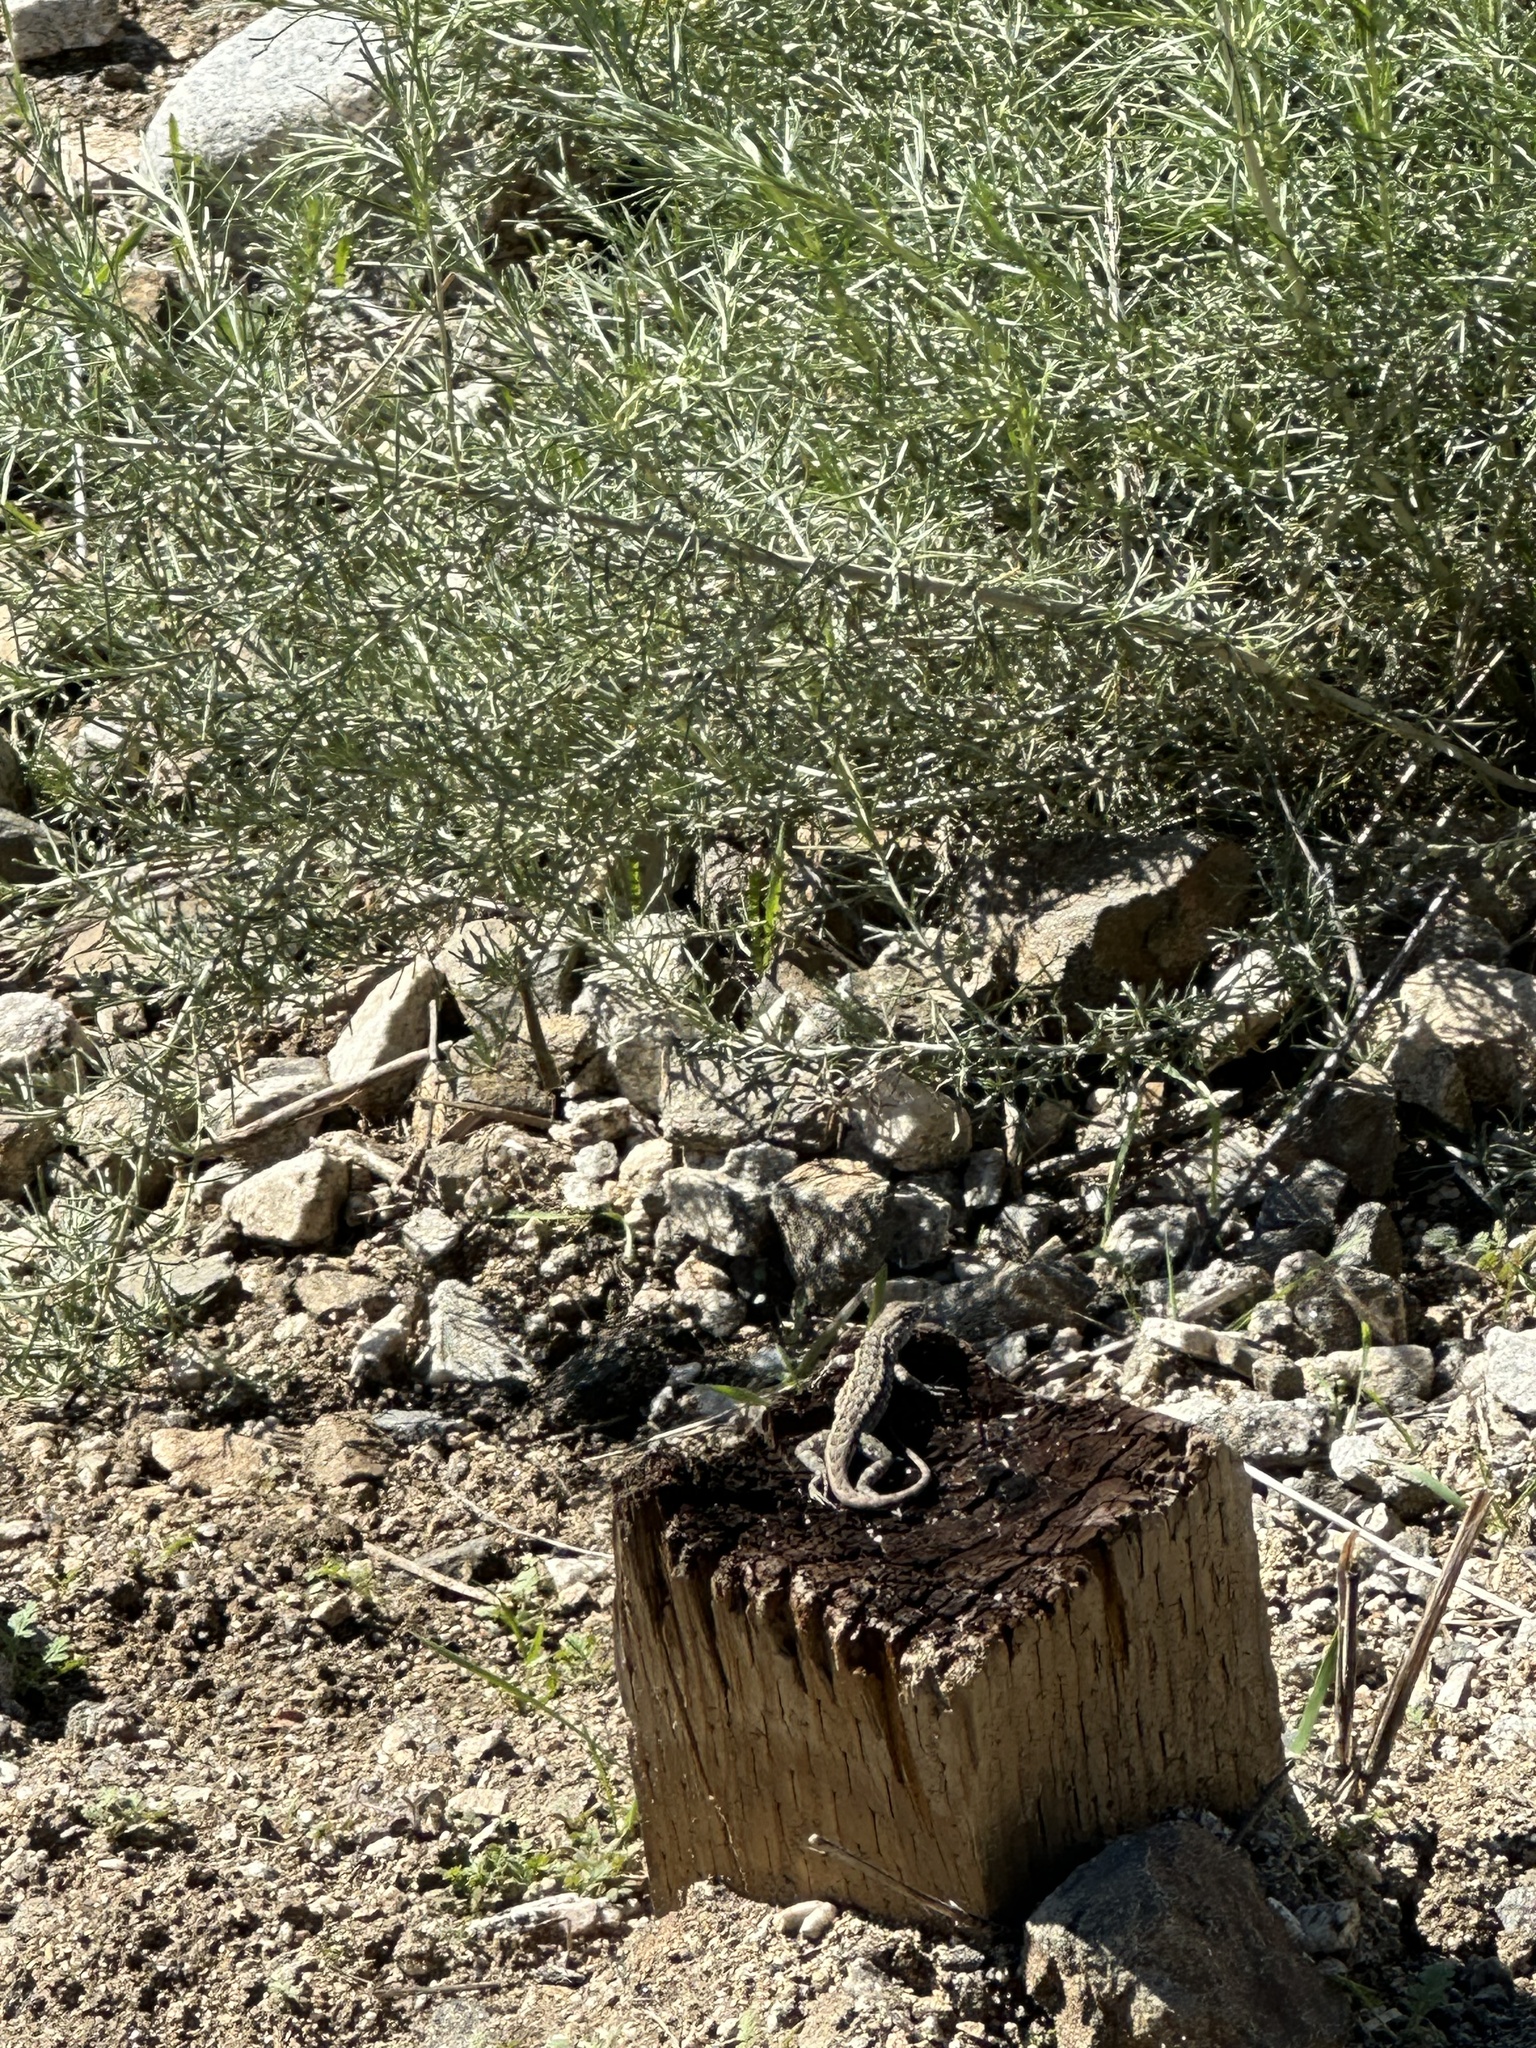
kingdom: Animalia
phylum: Chordata
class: Squamata
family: Phrynosomatidae
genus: Uta
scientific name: Uta stansburiana
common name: Side-blotched lizard
